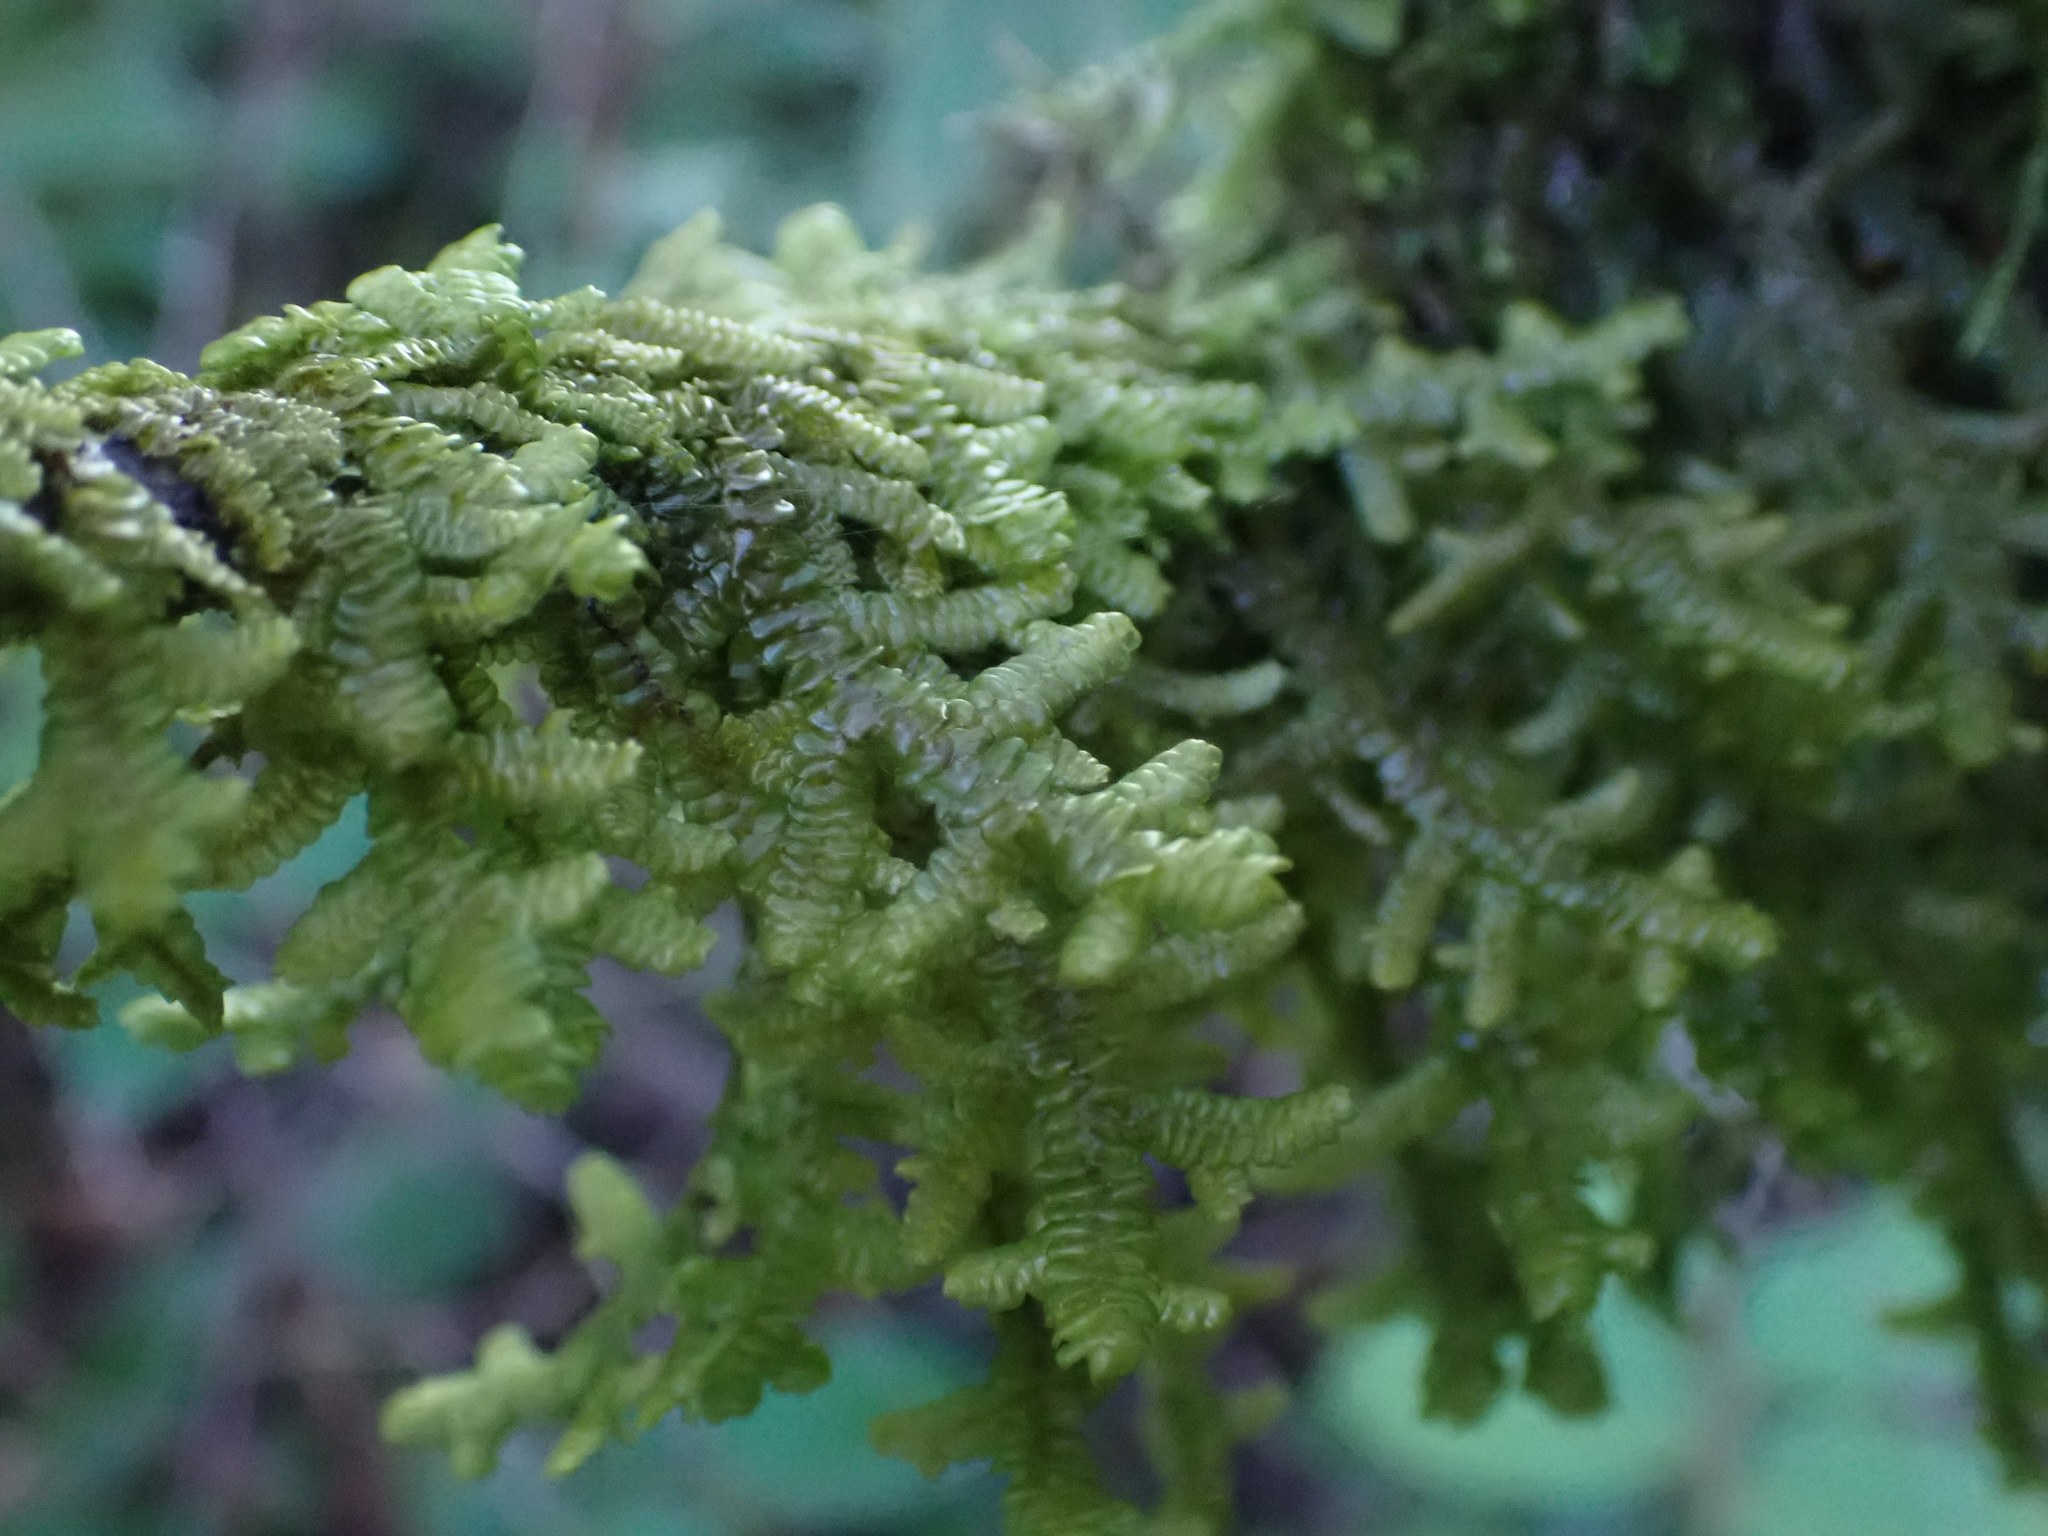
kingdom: Plantae
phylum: Marchantiophyta
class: Jungermanniopsida
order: Porellales
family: Porellaceae
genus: Porella
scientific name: Porella navicularis
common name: Tree ruffle liverwort
